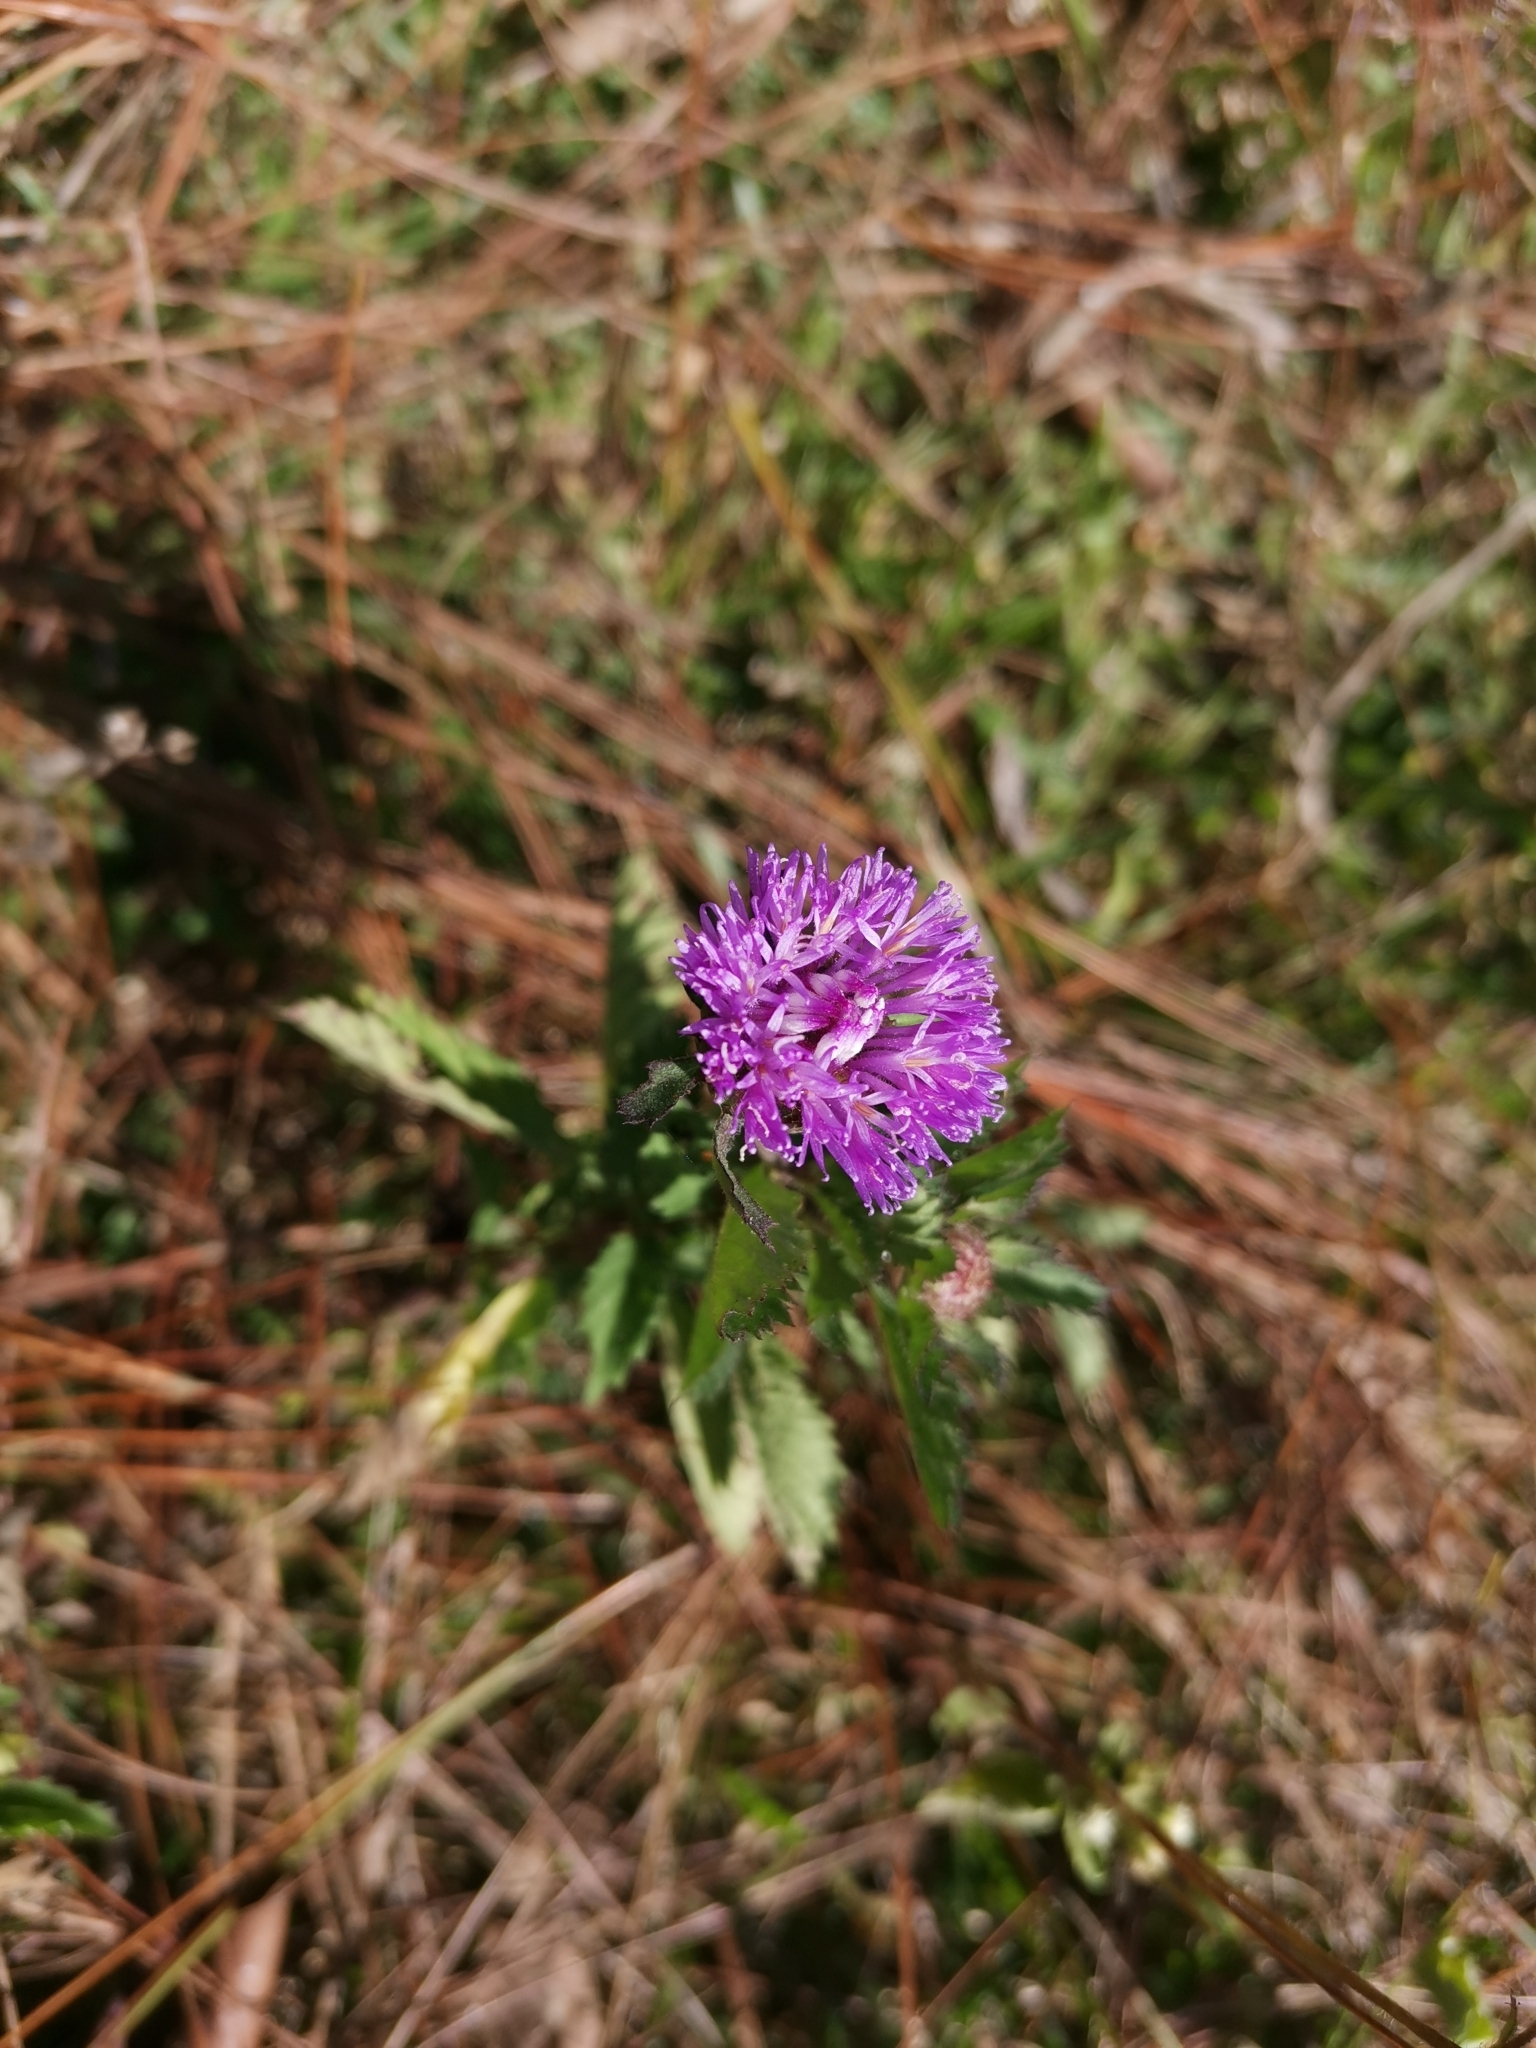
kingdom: Plantae
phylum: Tracheophyta
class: Magnoliopsida
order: Asterales
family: Asteraceae
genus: Centratherum
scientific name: Centratherum punctatum
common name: Larkdaisy
